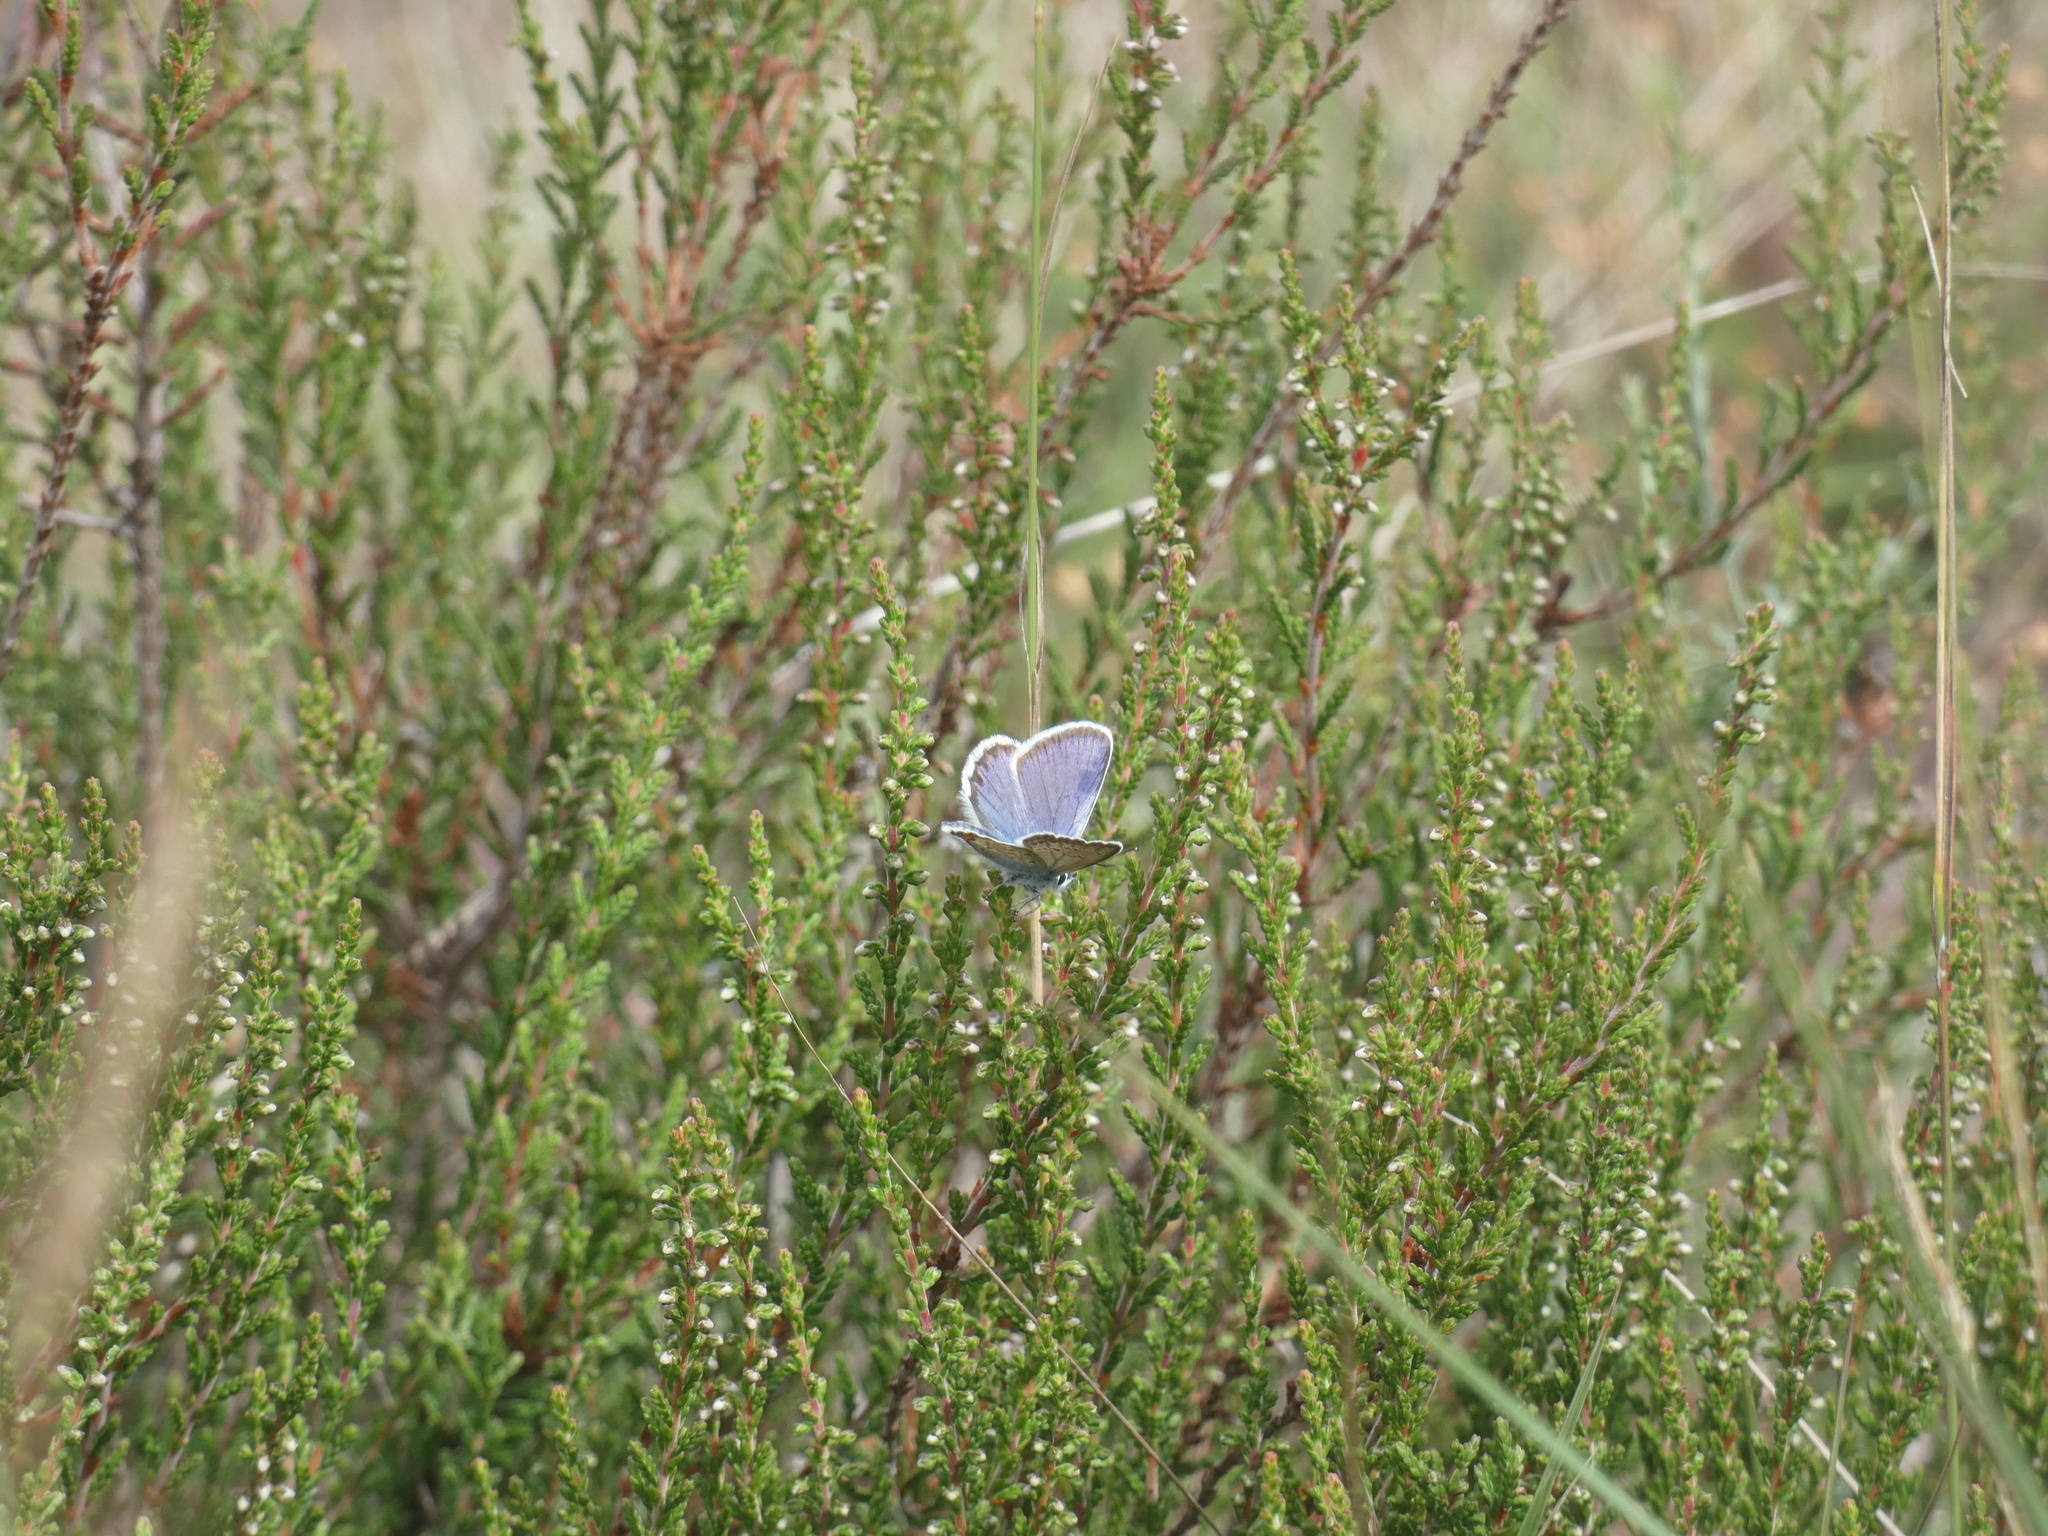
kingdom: Animalia
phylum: Arthropoda
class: Insecta
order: Lepidoptera
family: Lycaenidae
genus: Plebejus
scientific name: Plebejus argus
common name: Silver-studded blue
